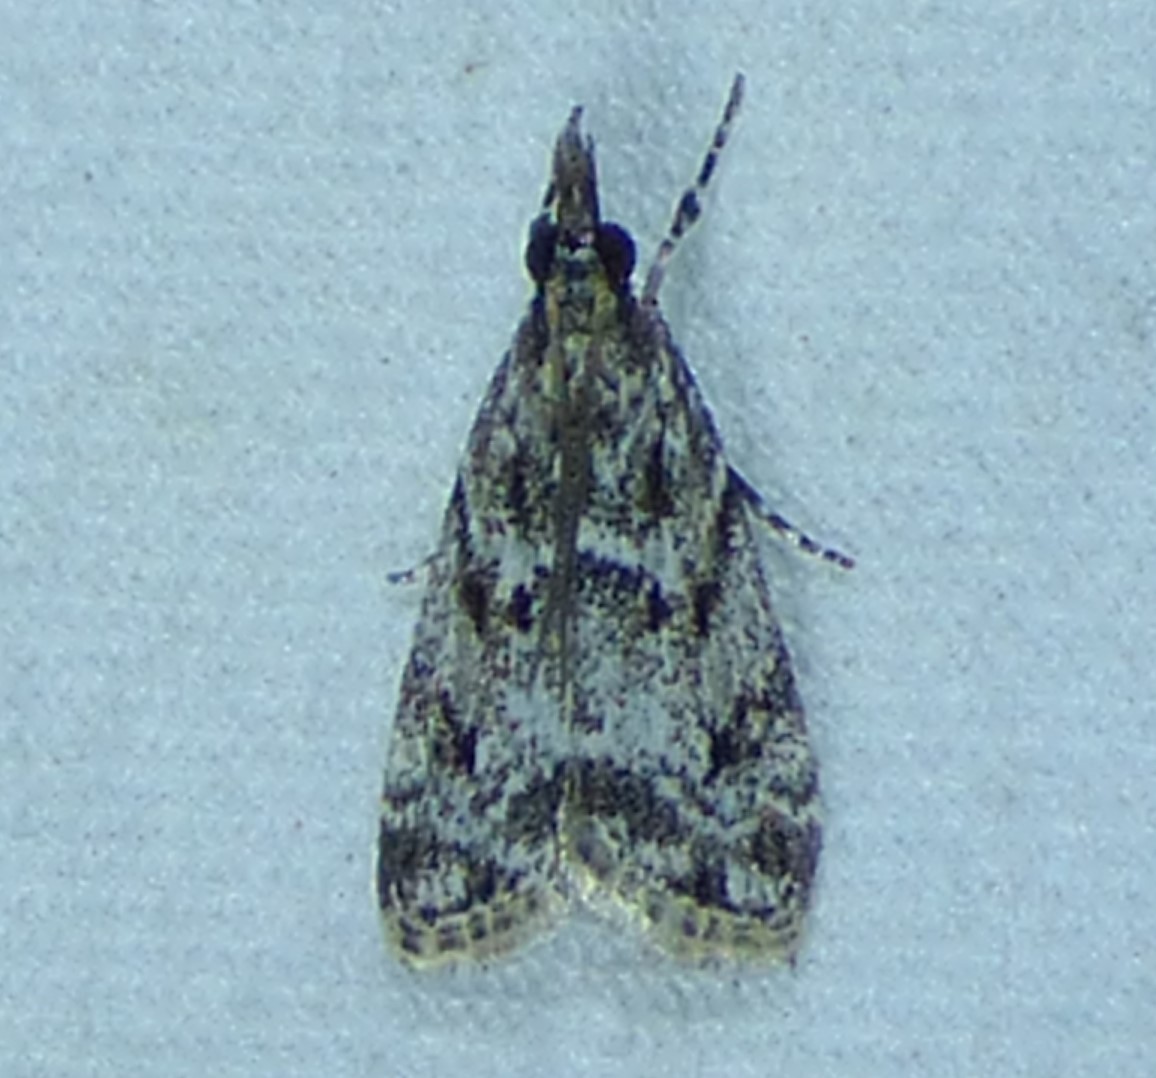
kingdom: Animalia
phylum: Arthropoda
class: Insecta
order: Lepidoptera
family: Crambidae
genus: Scoparia
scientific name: Scoparia basalis
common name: Many-spotted scoparia moth
